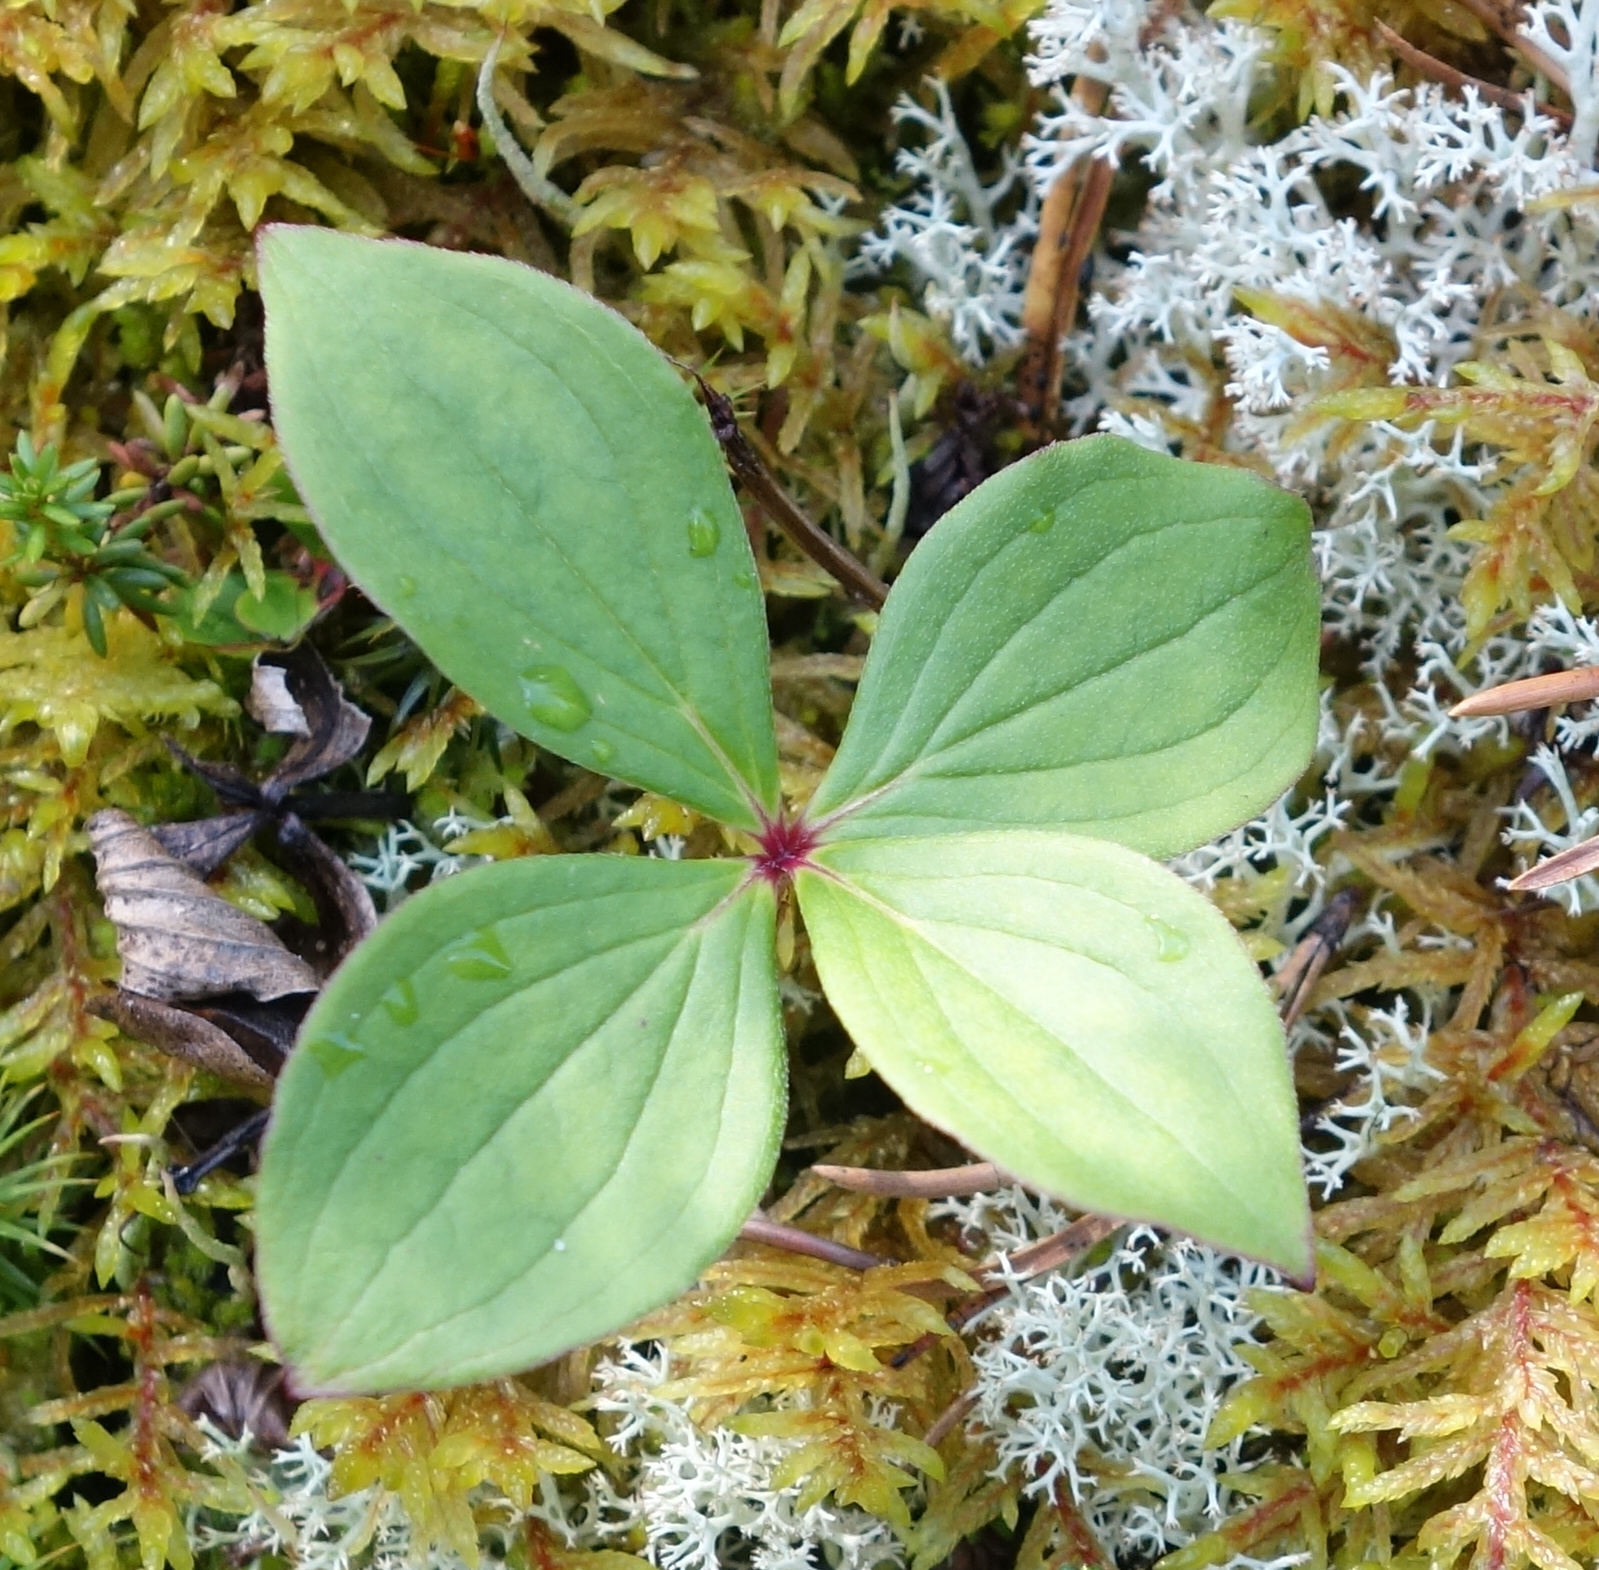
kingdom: Plantae
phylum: Tracheophyta
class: Magnoliopsida
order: Cornales
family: Cornaceae
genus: Cornus
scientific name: Cornus canadensis
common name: Creeping dogwood
